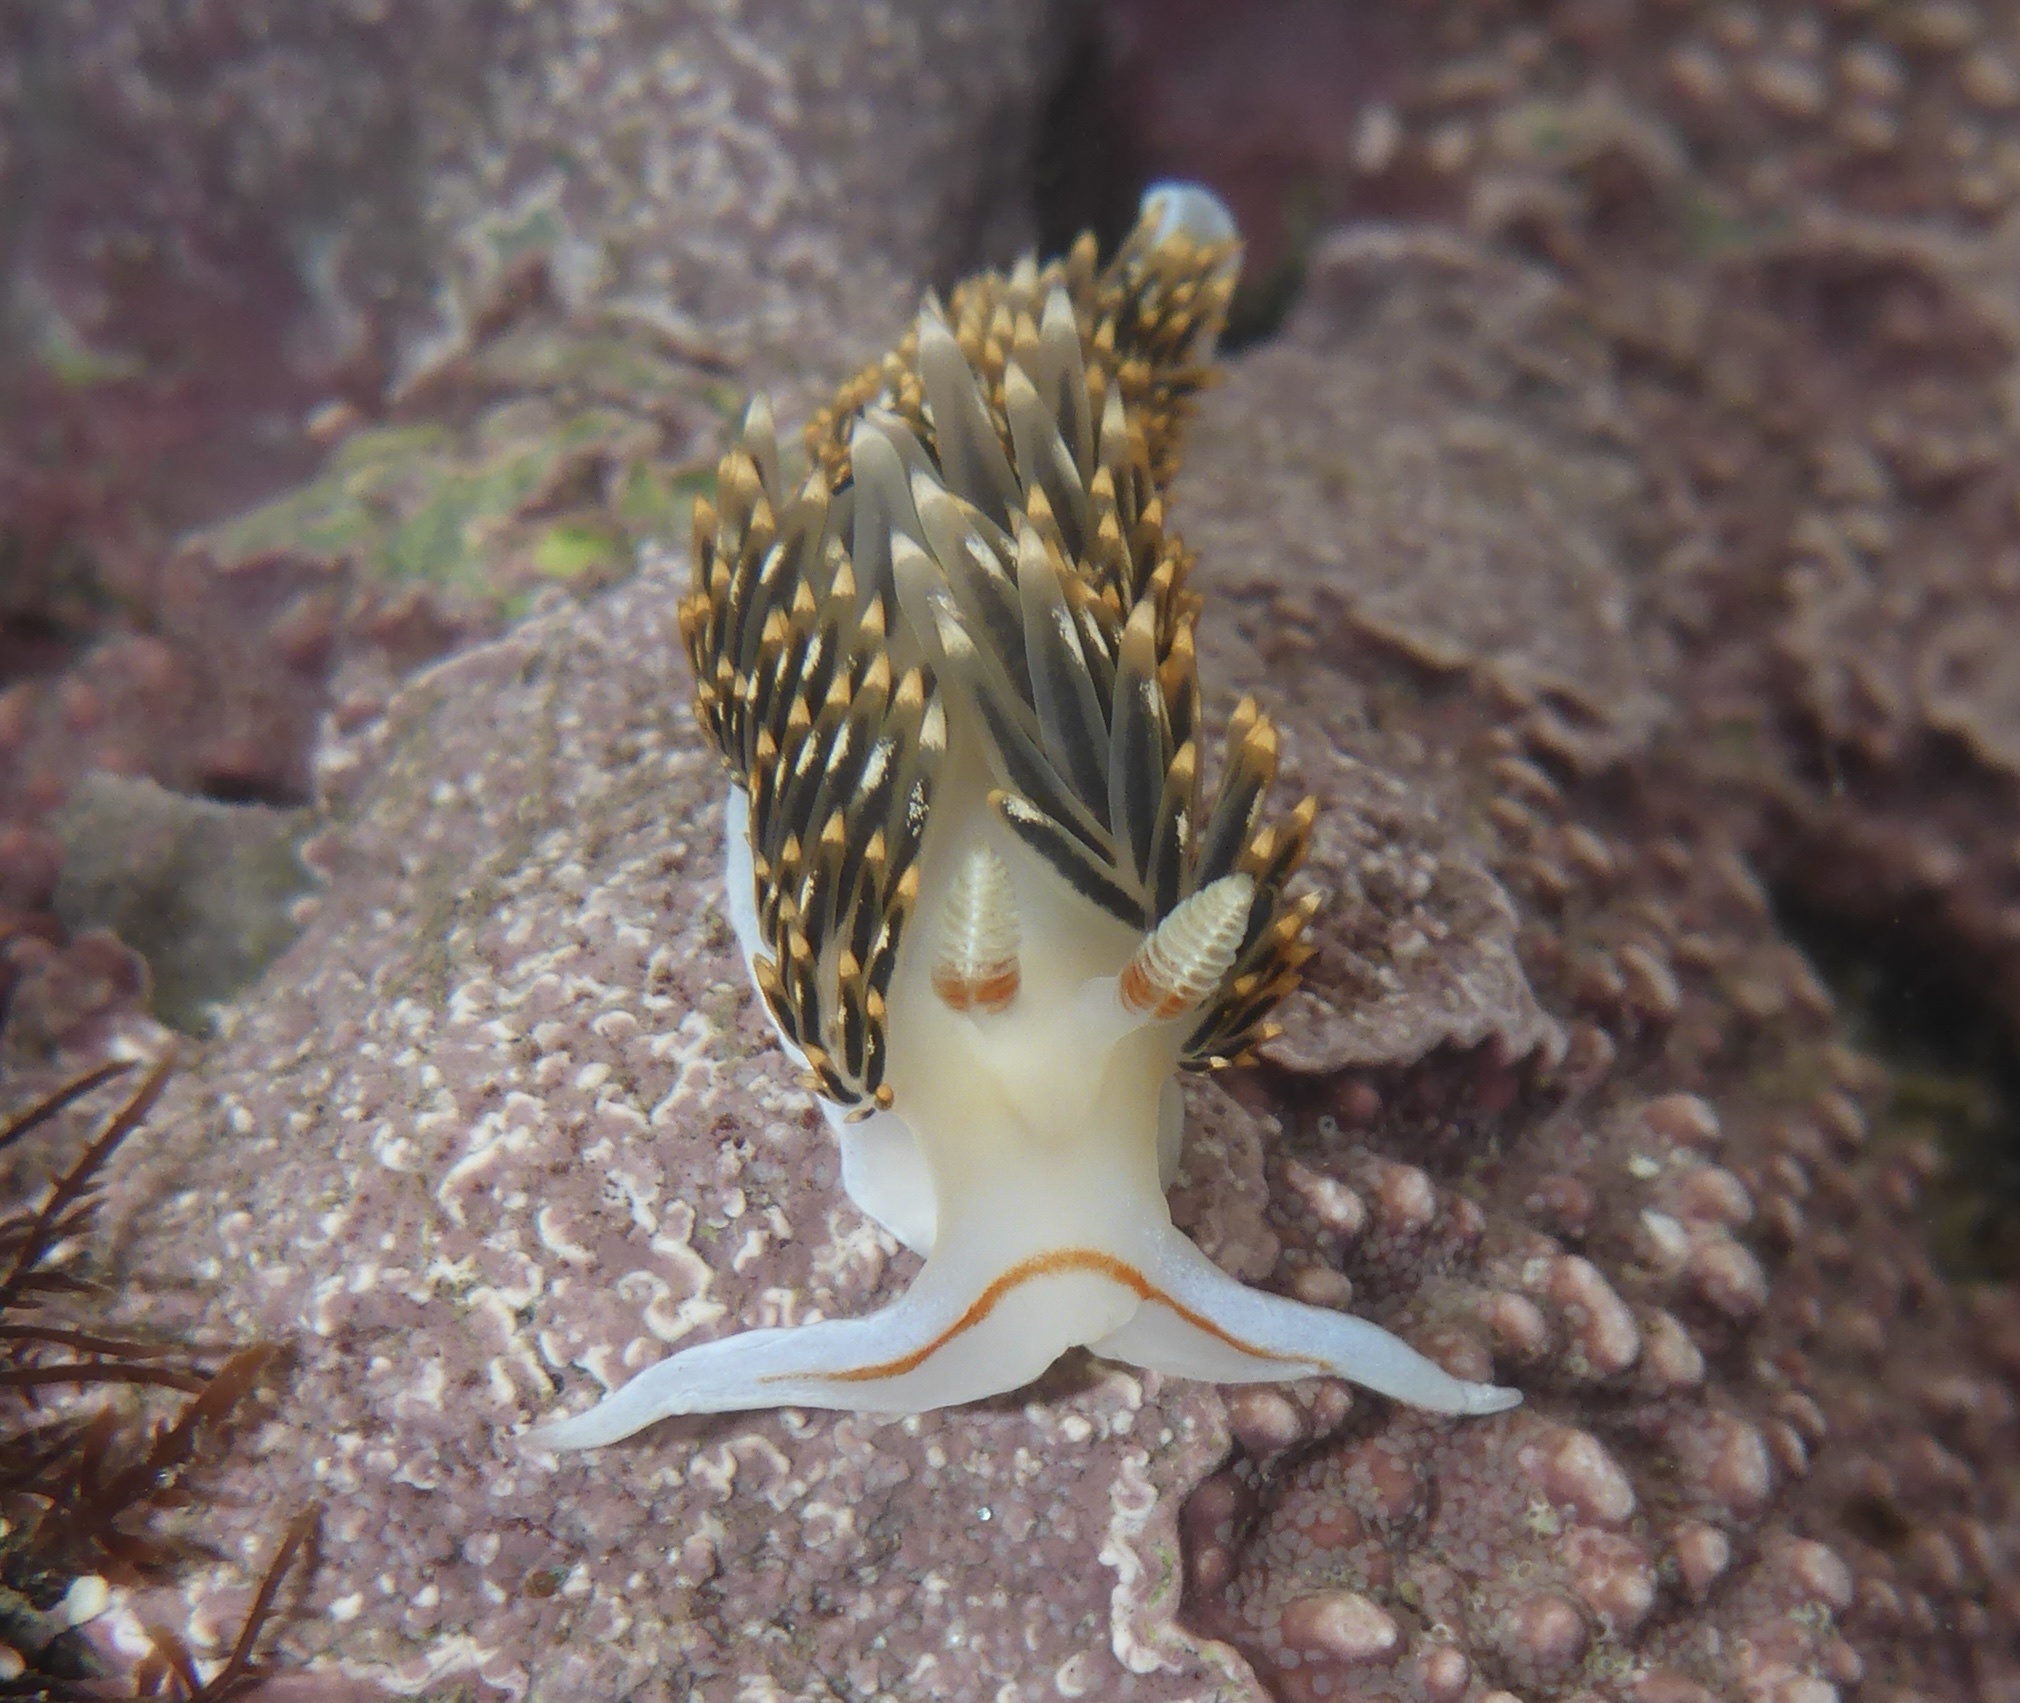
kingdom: Animalia
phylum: Mollusca
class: Gastropoda
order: Nudibranchia
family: Facelinidae
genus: Phidiana
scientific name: Phidiana hiltoni
